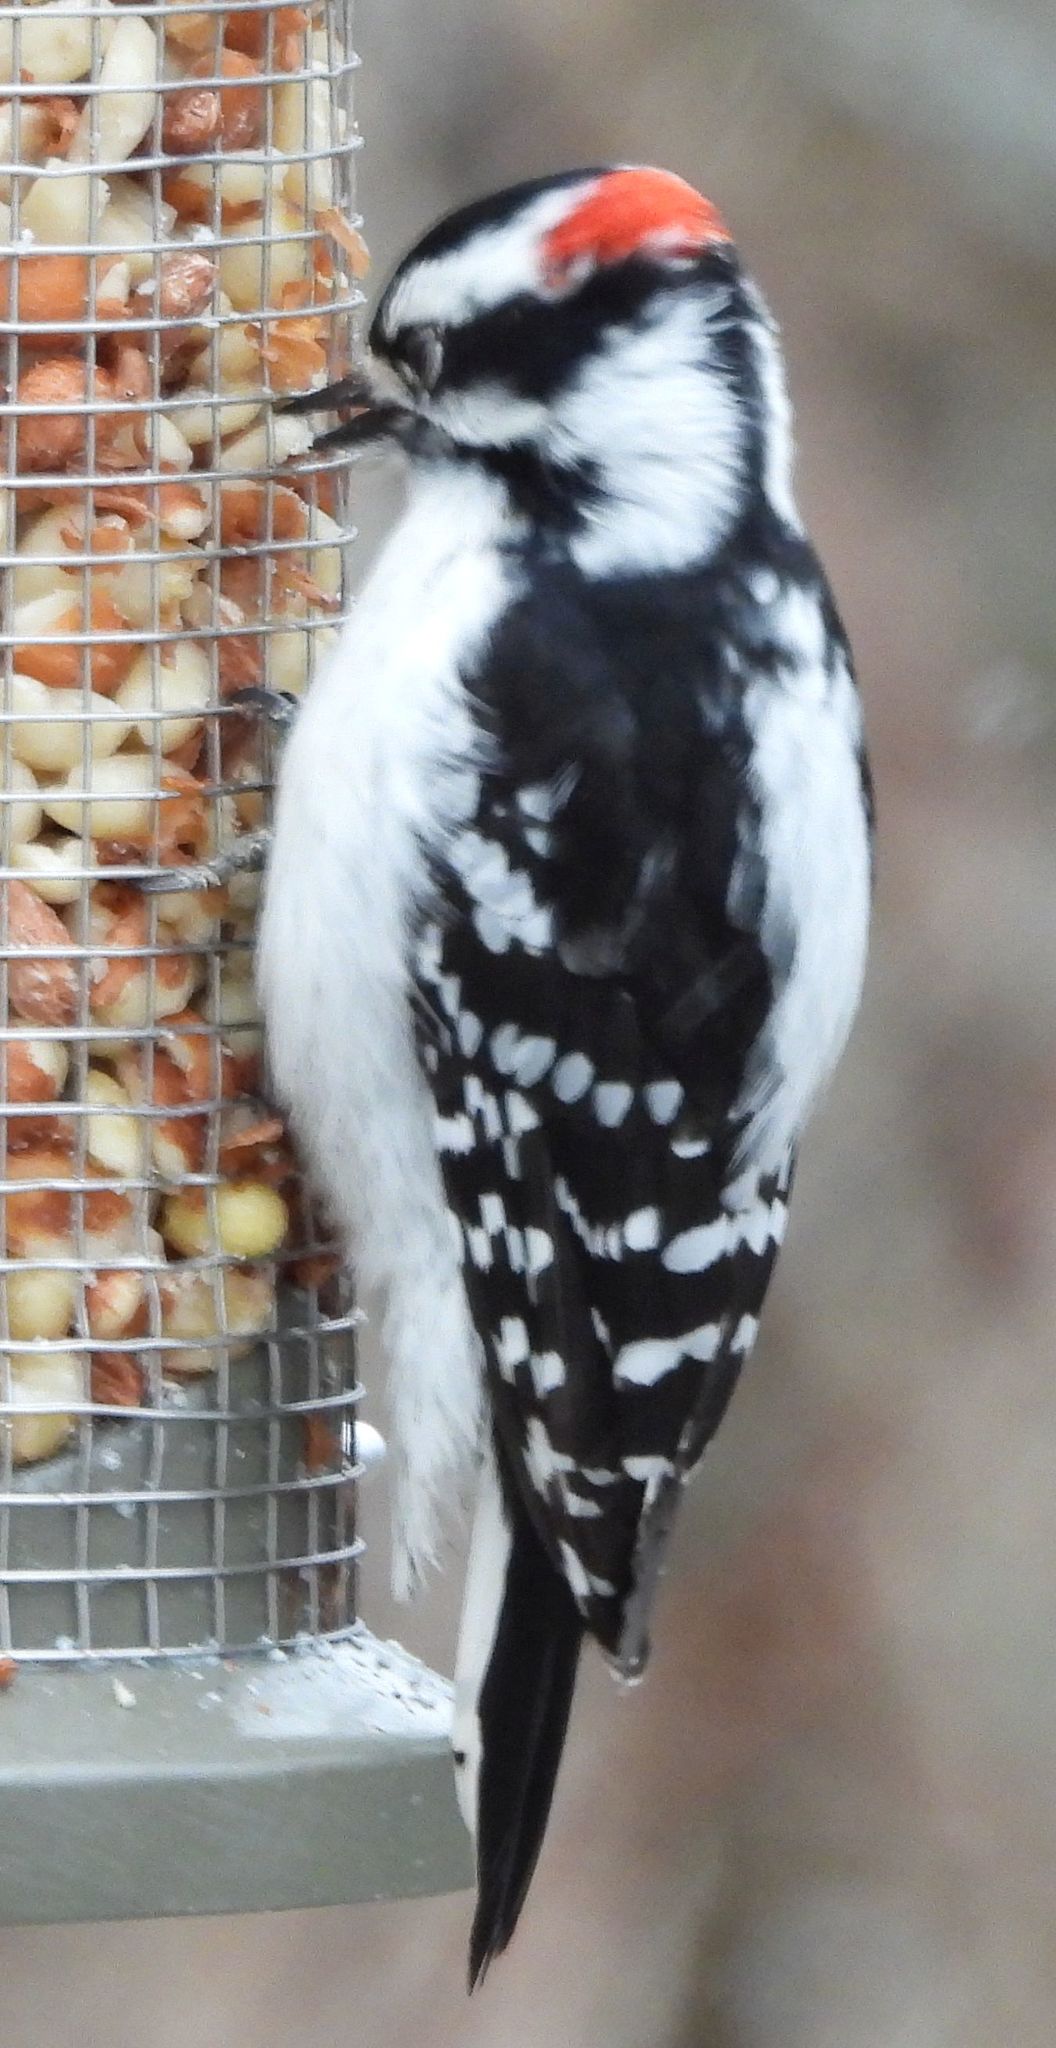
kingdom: Animalia
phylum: Chordata
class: Aves
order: Piciformes
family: Picidae
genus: Dryobates
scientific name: Dryobates pubescens
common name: Downy woodpecker
